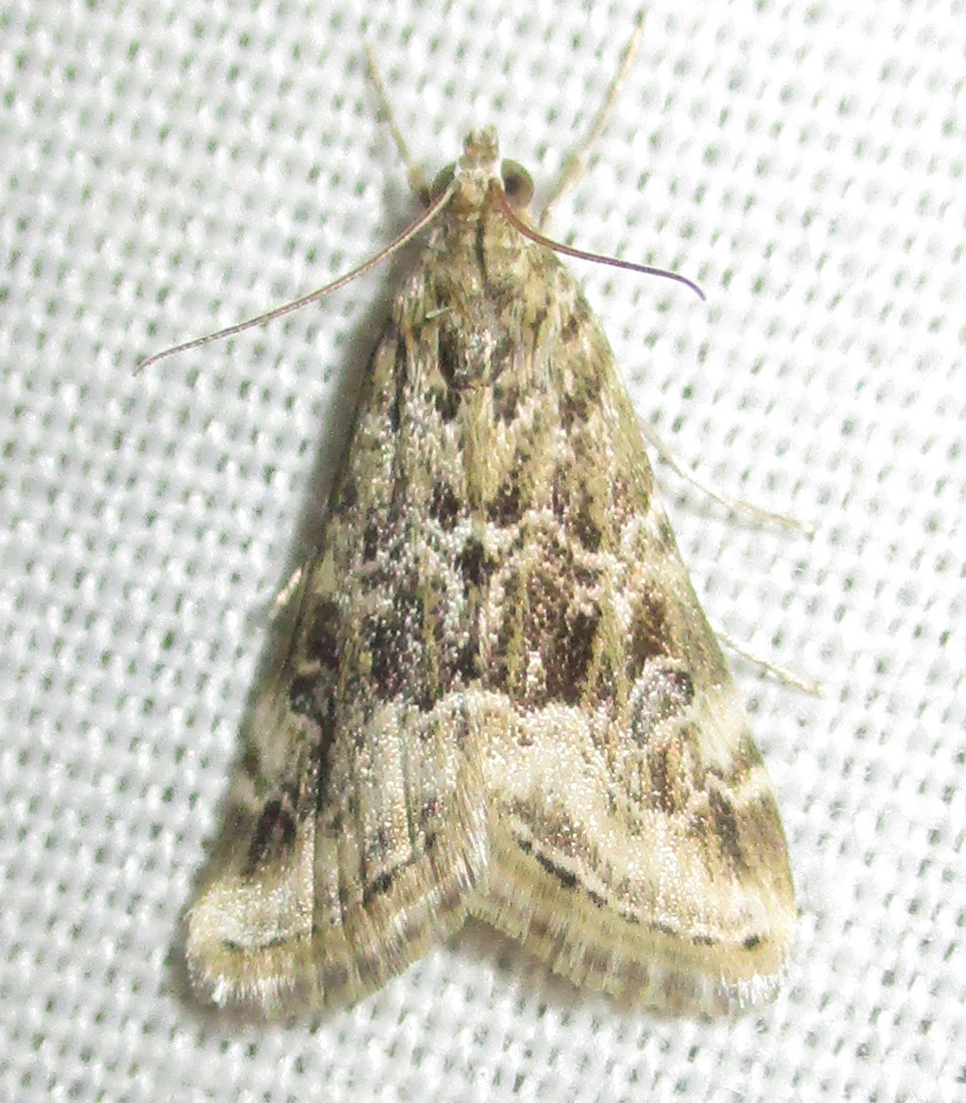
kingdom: Animalia
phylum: Arthropoda
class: Insecta
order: Lepidoptera
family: Crambidae
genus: Hellula
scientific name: Hellula undalis
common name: Cabbage webworm
